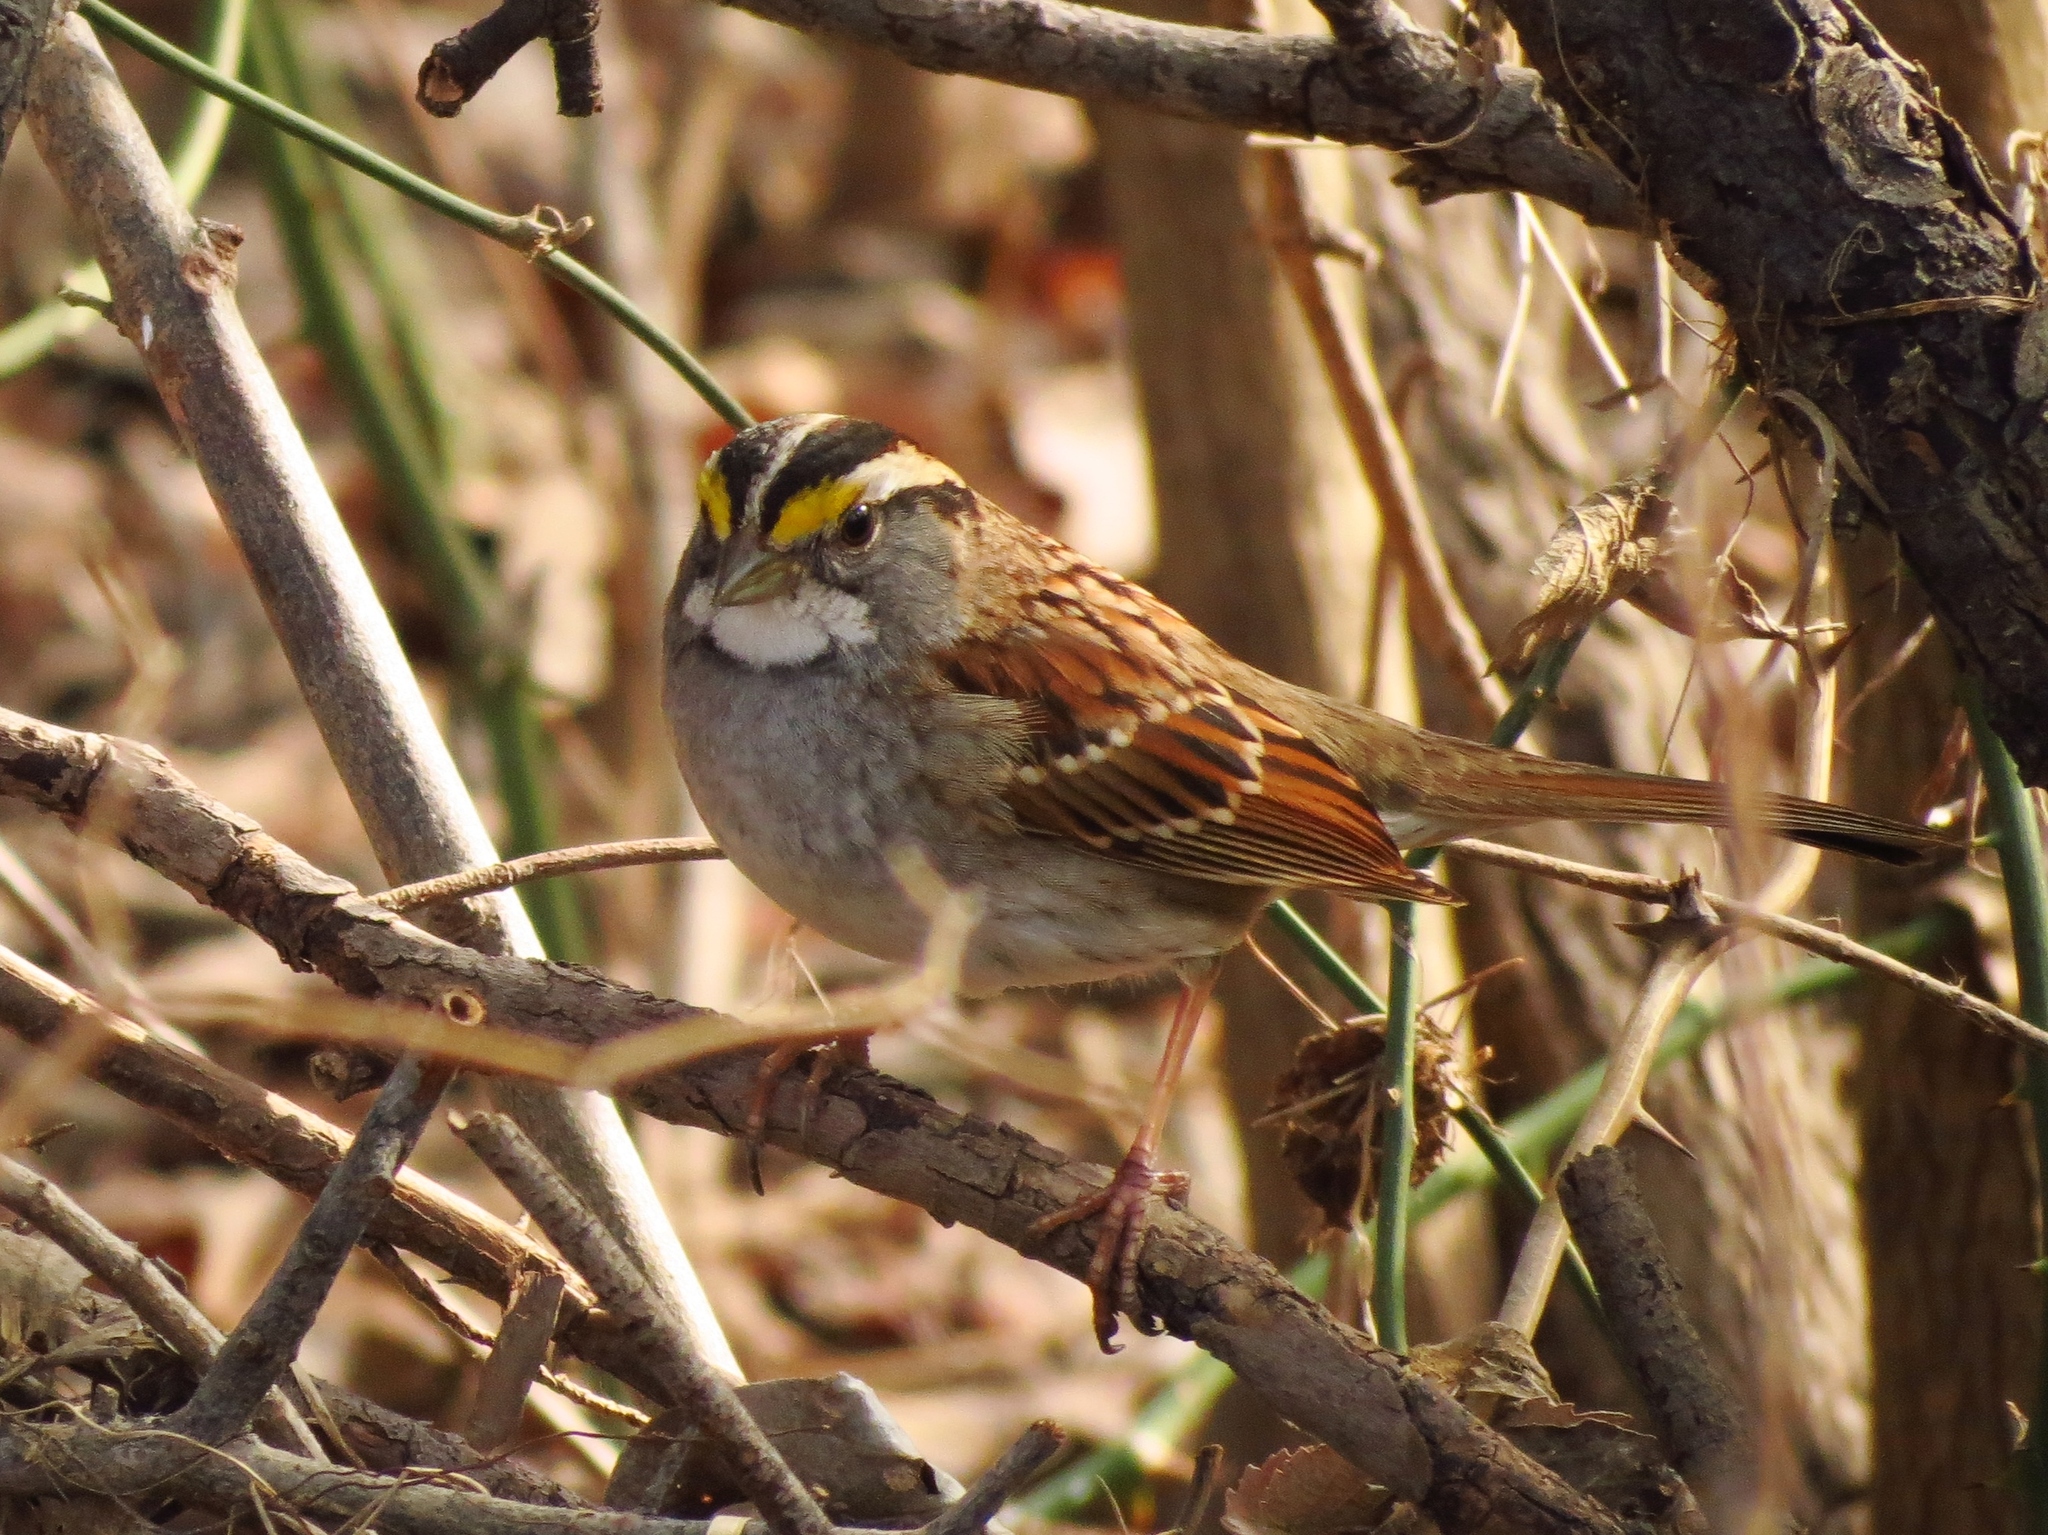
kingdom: Animalia
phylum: Chordata
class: Aves
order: Passeriformes
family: Passerellidae
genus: Zonotrichia
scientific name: Zonotrichia albicollis
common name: White-throated sparrow
